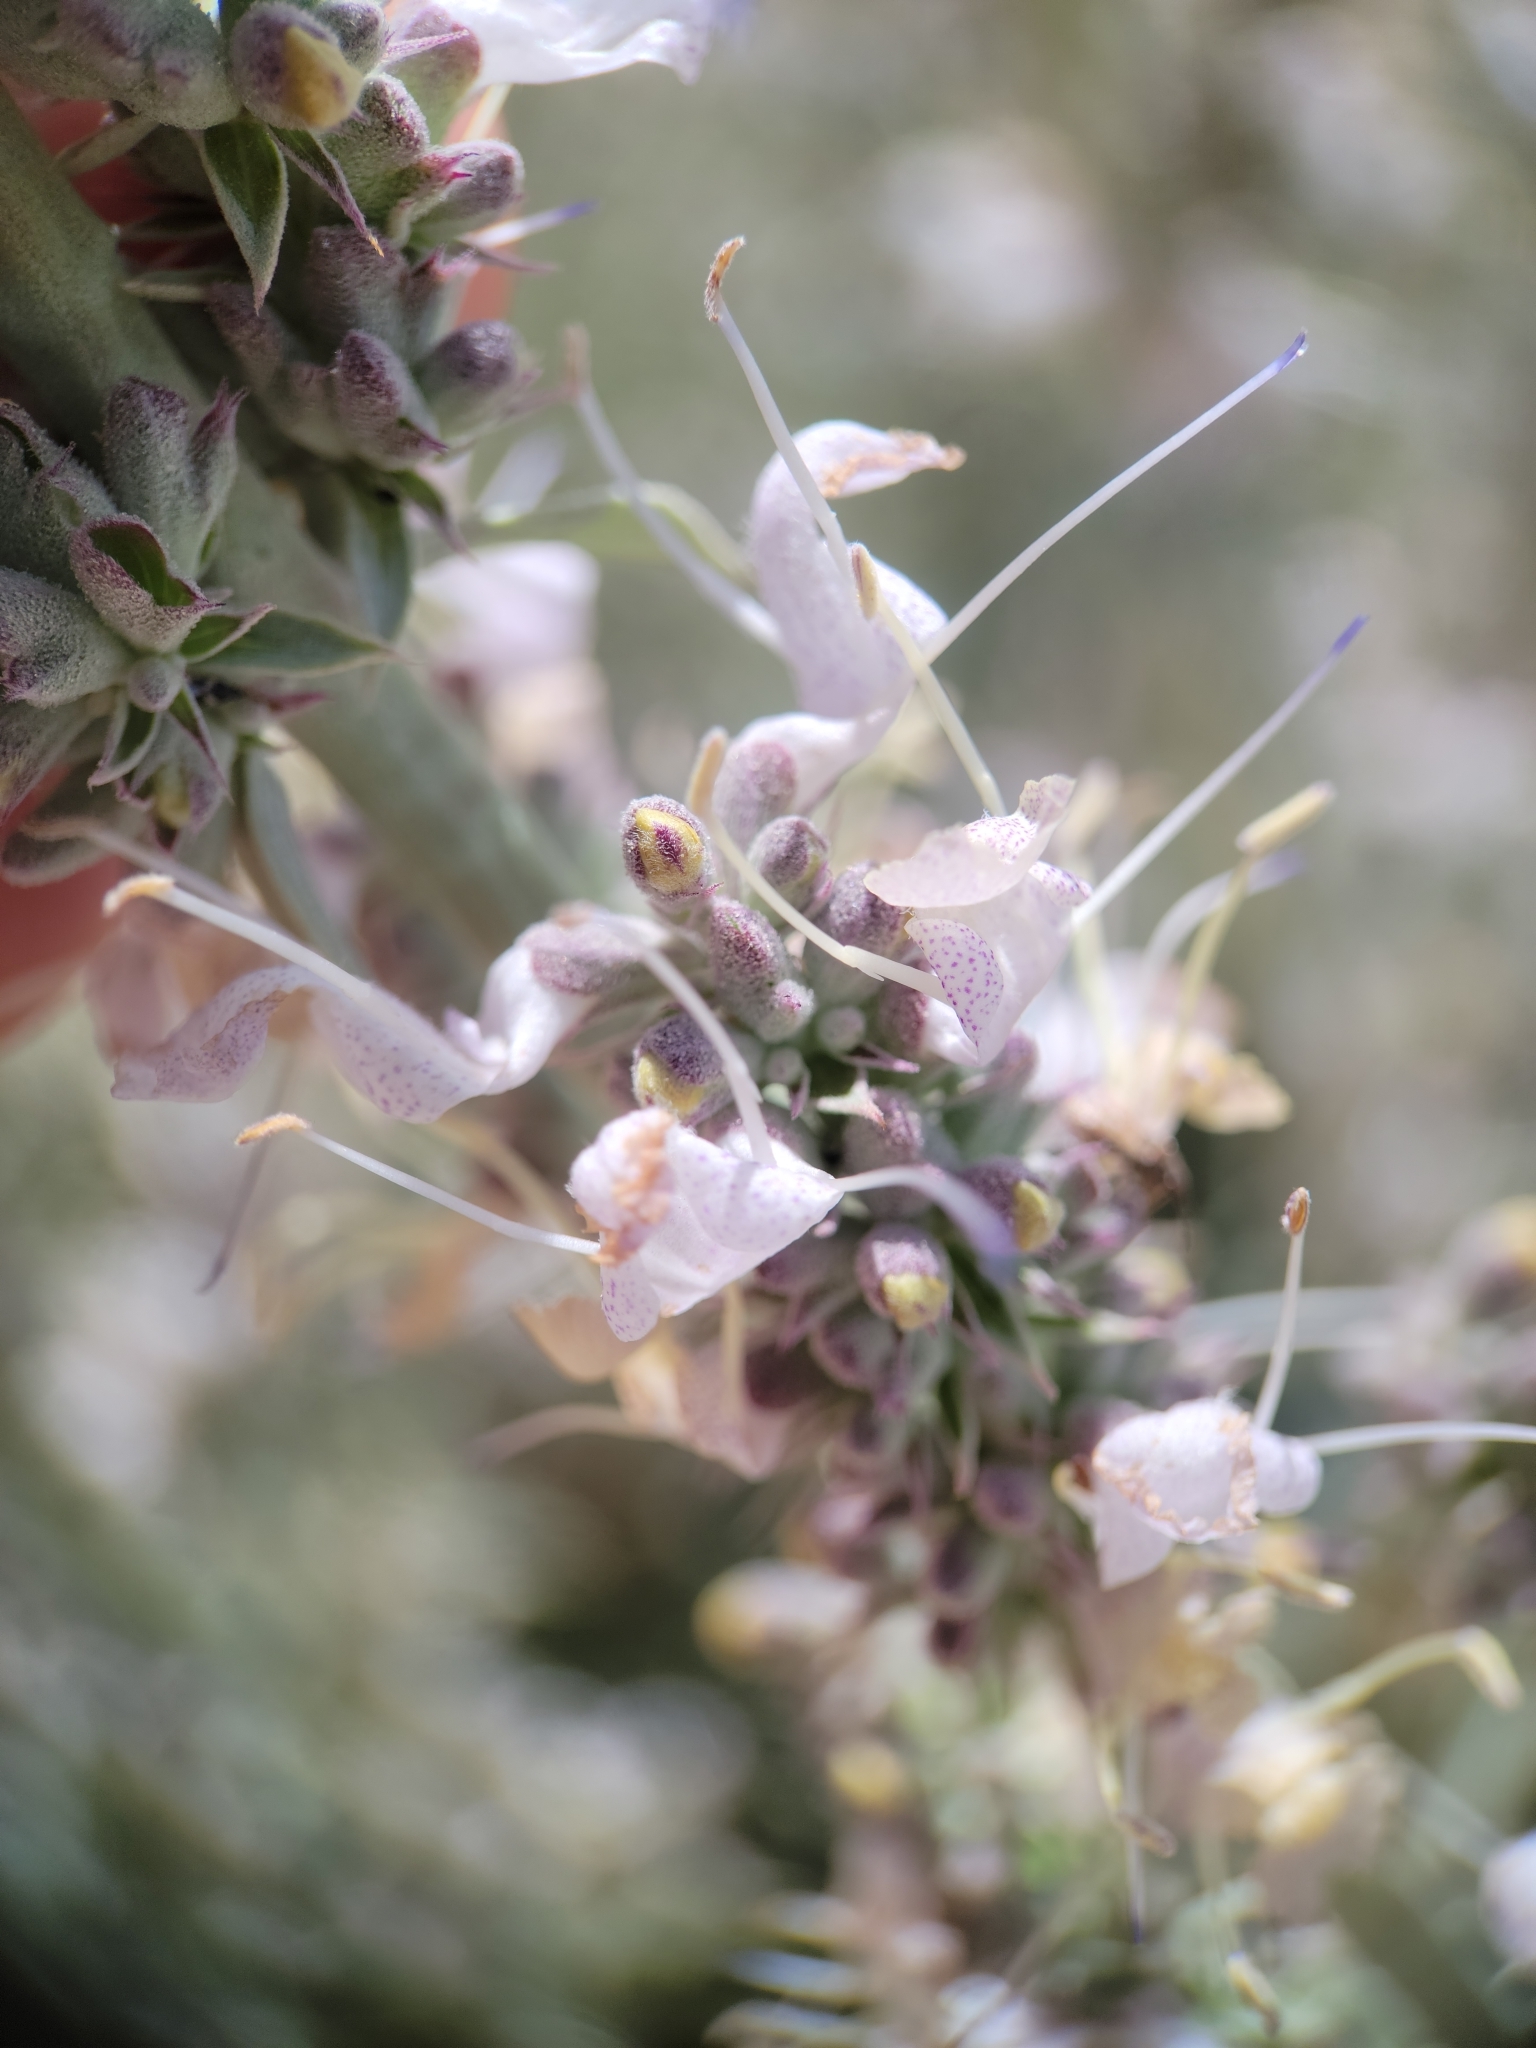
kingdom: Plantae
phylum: Tracheophyta
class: Magnoliopsida
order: Lamiales
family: Lamiaceae
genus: Salvia
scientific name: Salvia apiana
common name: White sage
